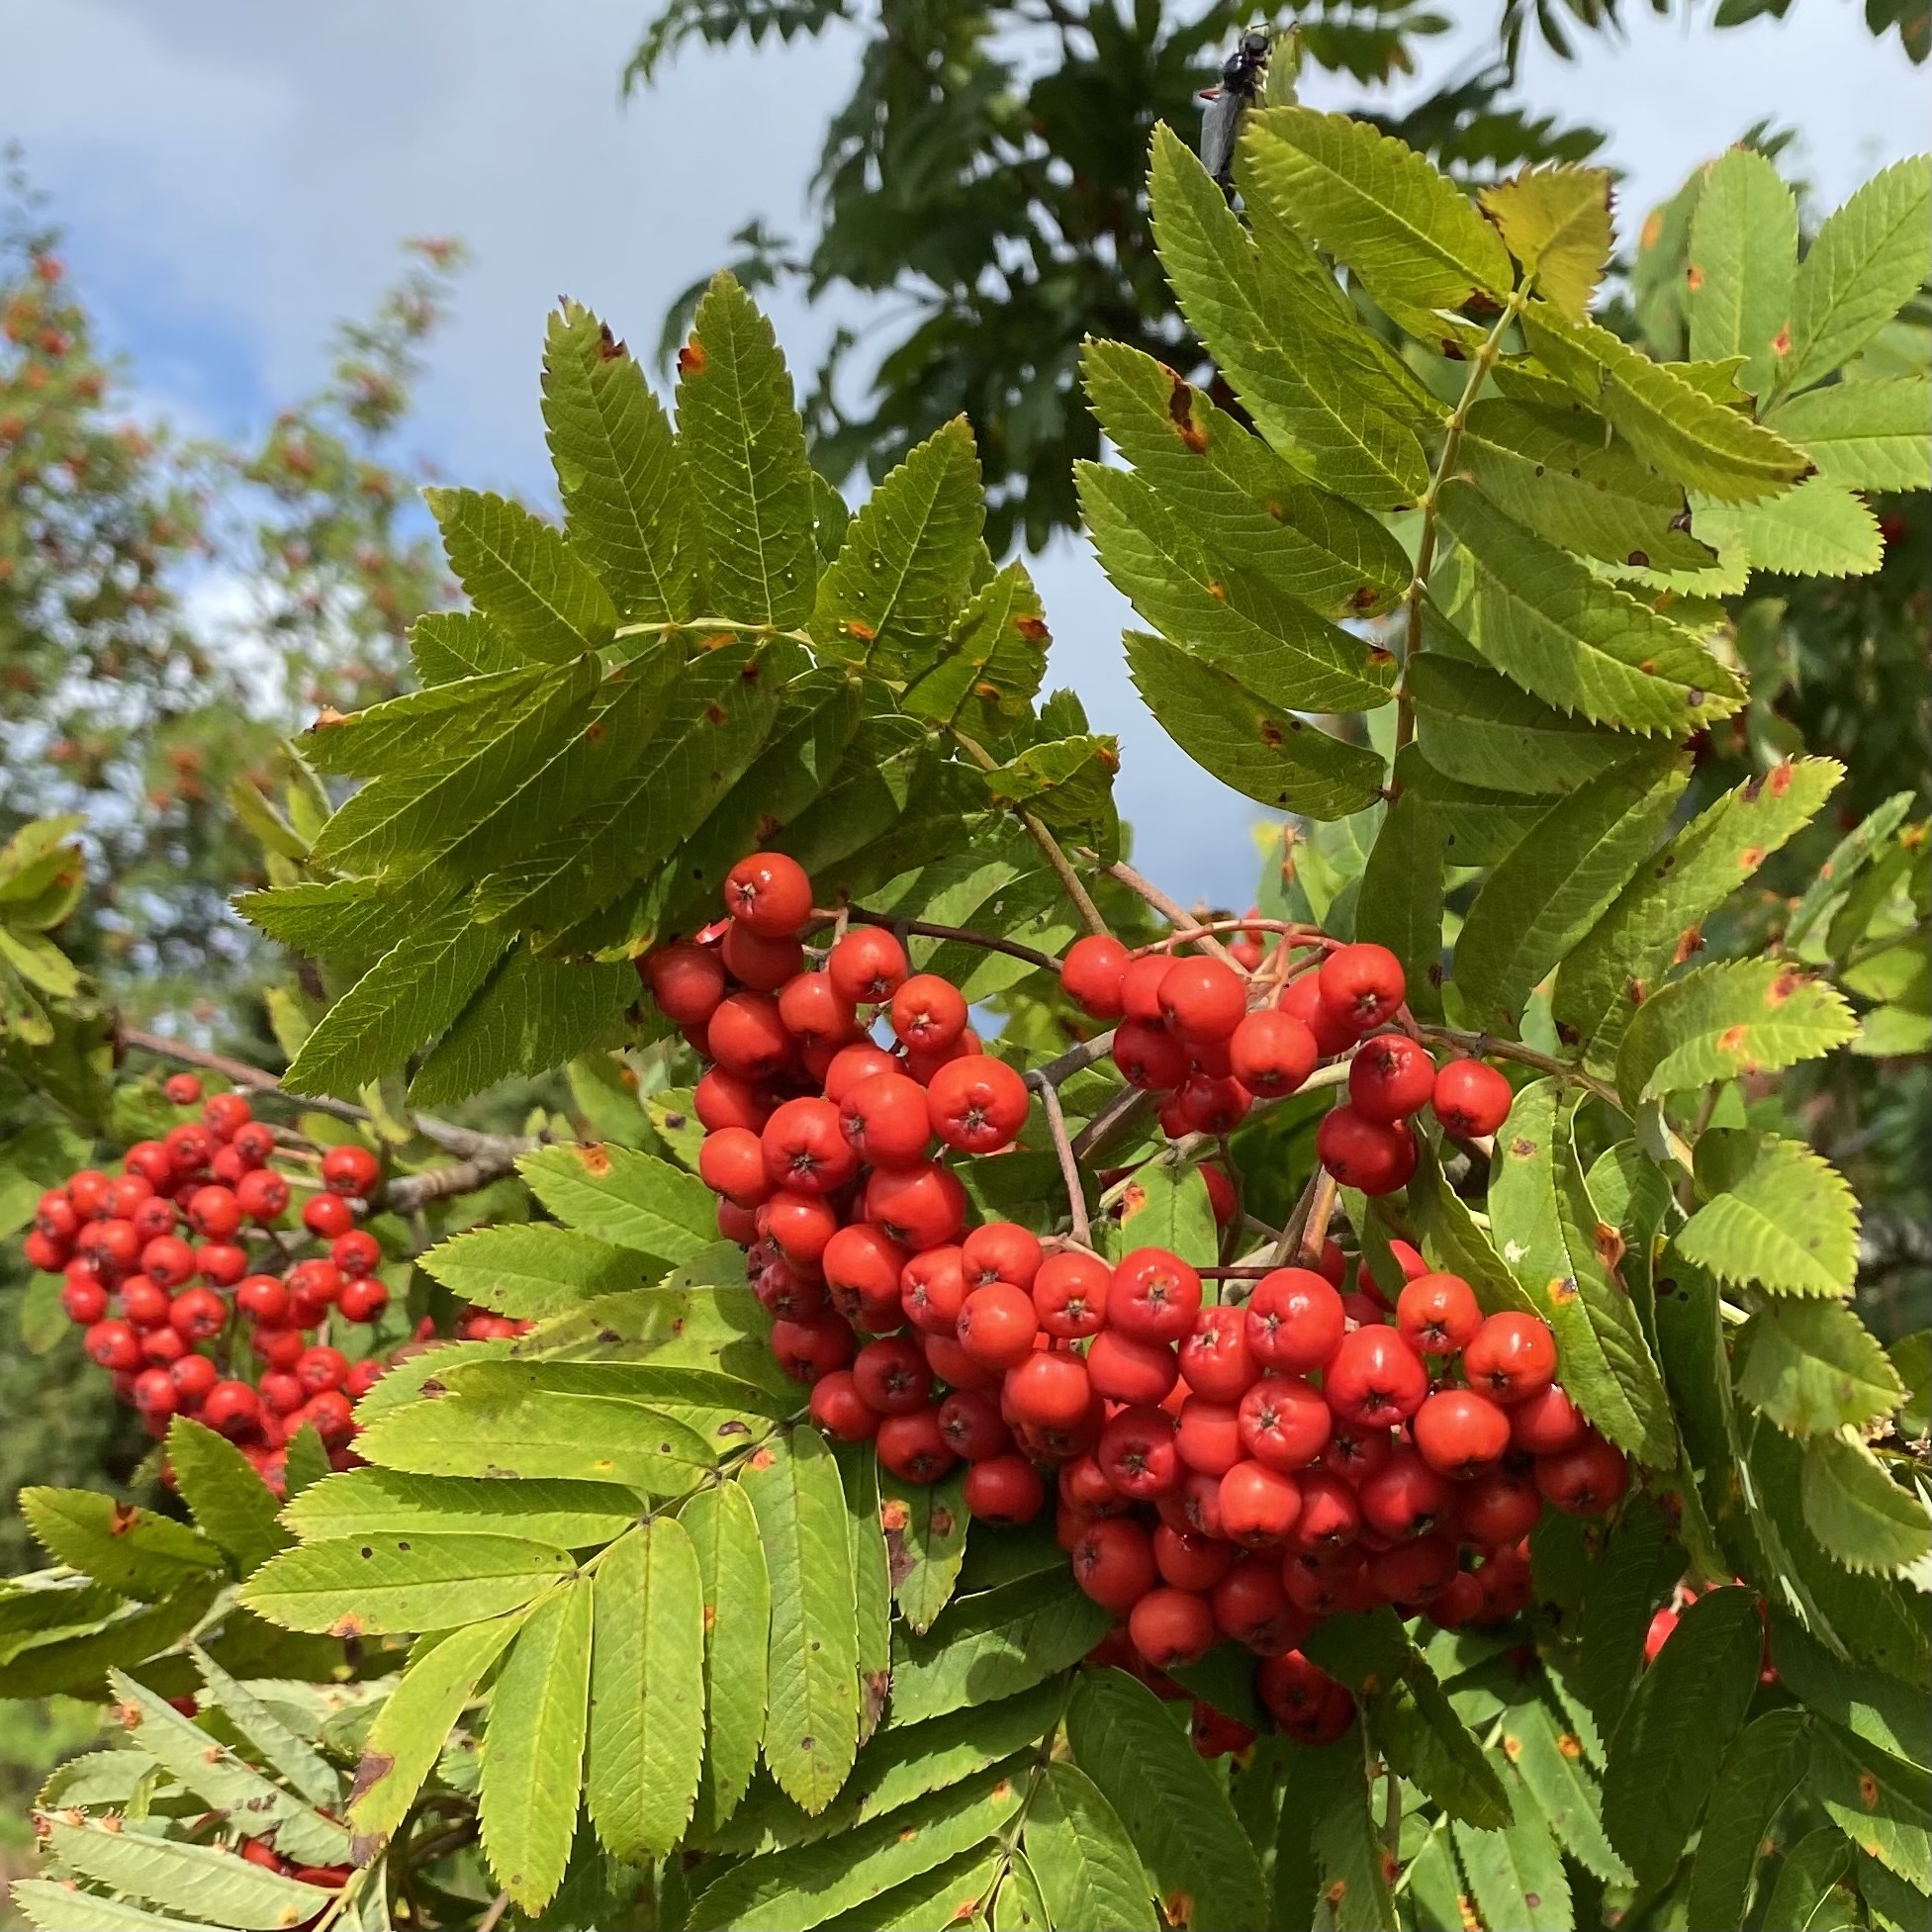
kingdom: Plantae
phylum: Tracheophyta
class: Magnoliopsida
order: Rosales
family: Rosaceae
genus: Sorbus
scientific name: Sorbus aucuparia
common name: Rowan
